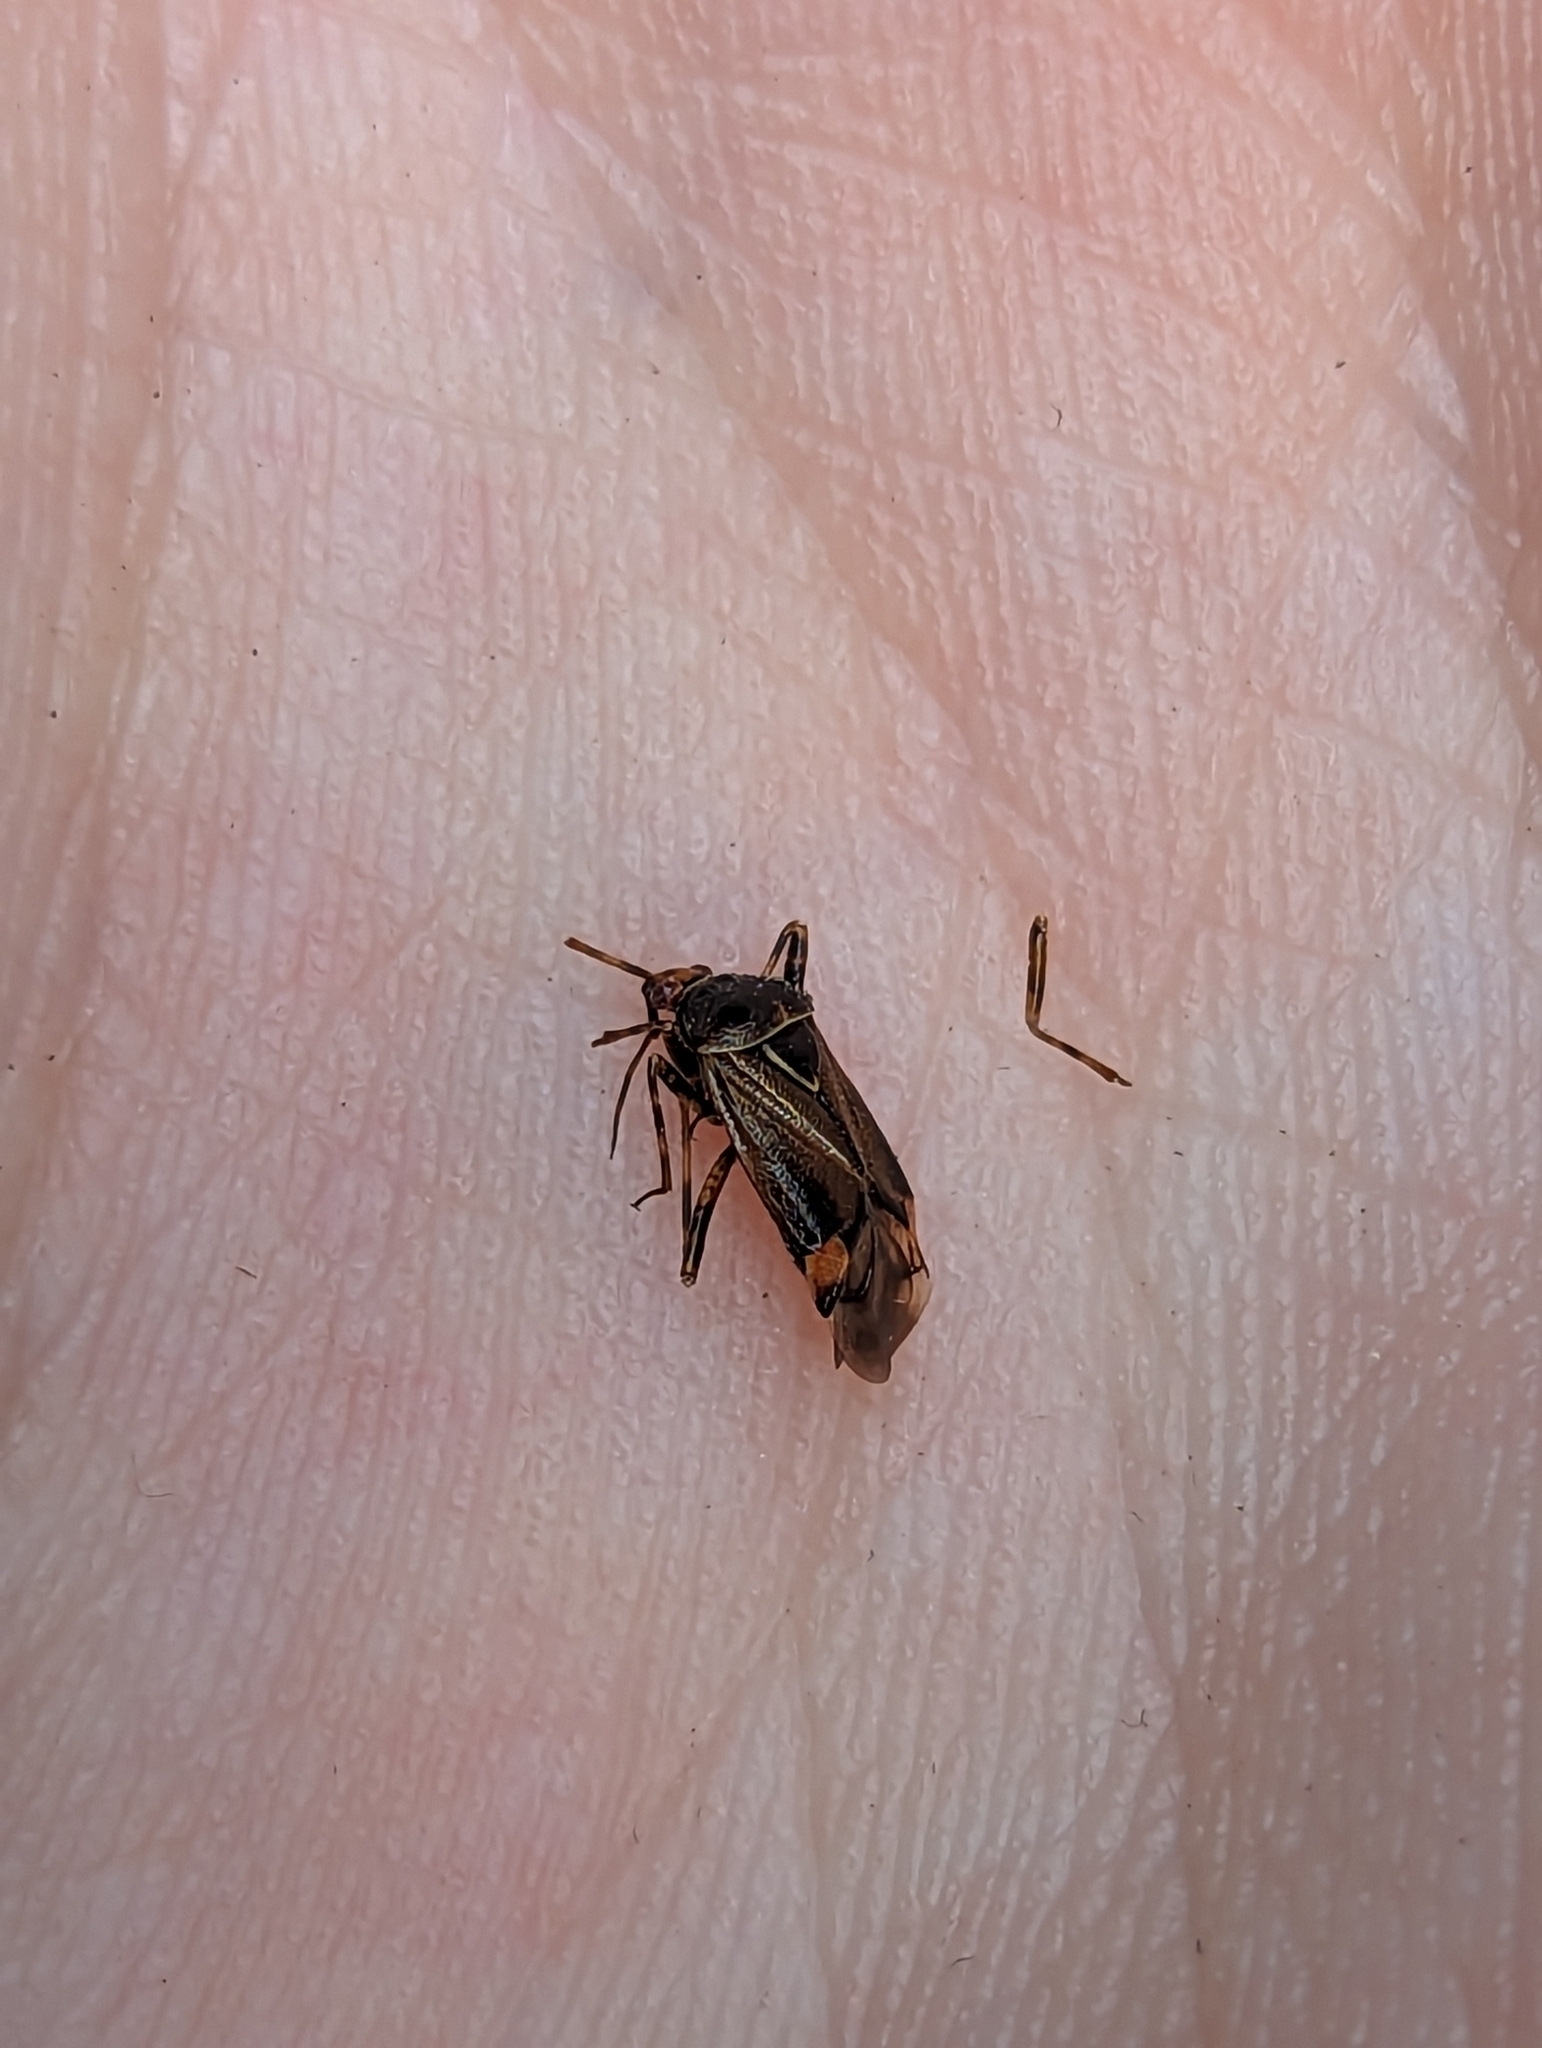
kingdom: Animalia
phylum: Arthropoda
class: Insecta
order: Hemiptera
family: Miridae
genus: Deraeocoris
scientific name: Deraeocoris flavilinea
